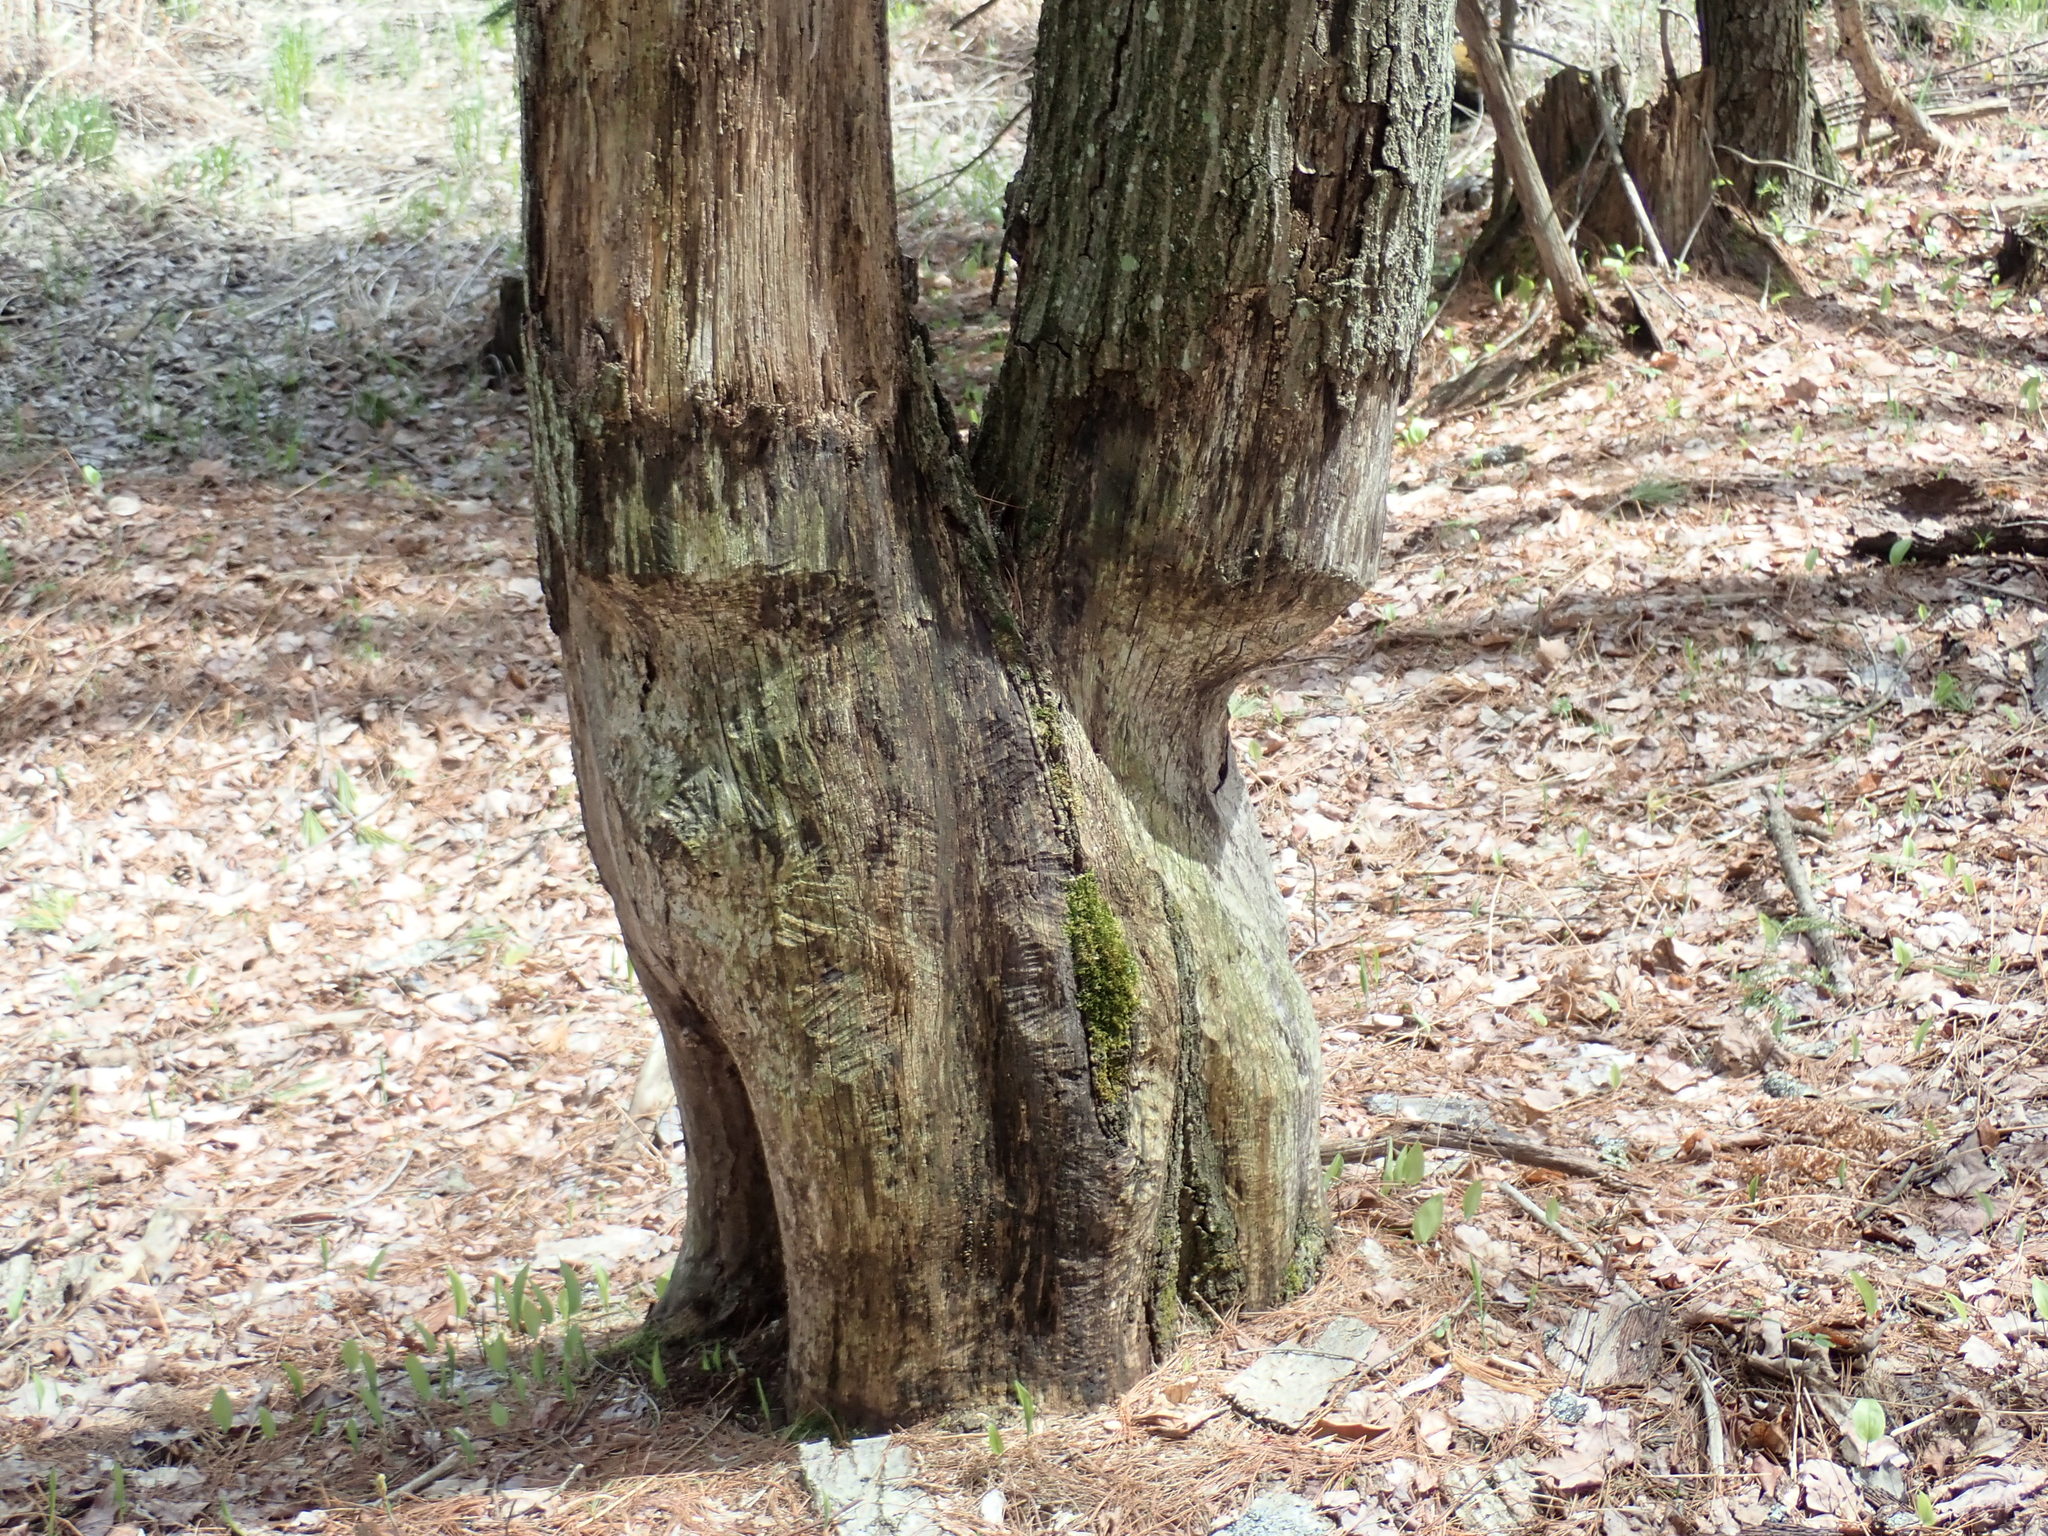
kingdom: Animalia
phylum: Chordata
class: Mammalia
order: Rodentia
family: Castoridae
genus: Castor
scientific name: Castor canadensis
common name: American beaver
